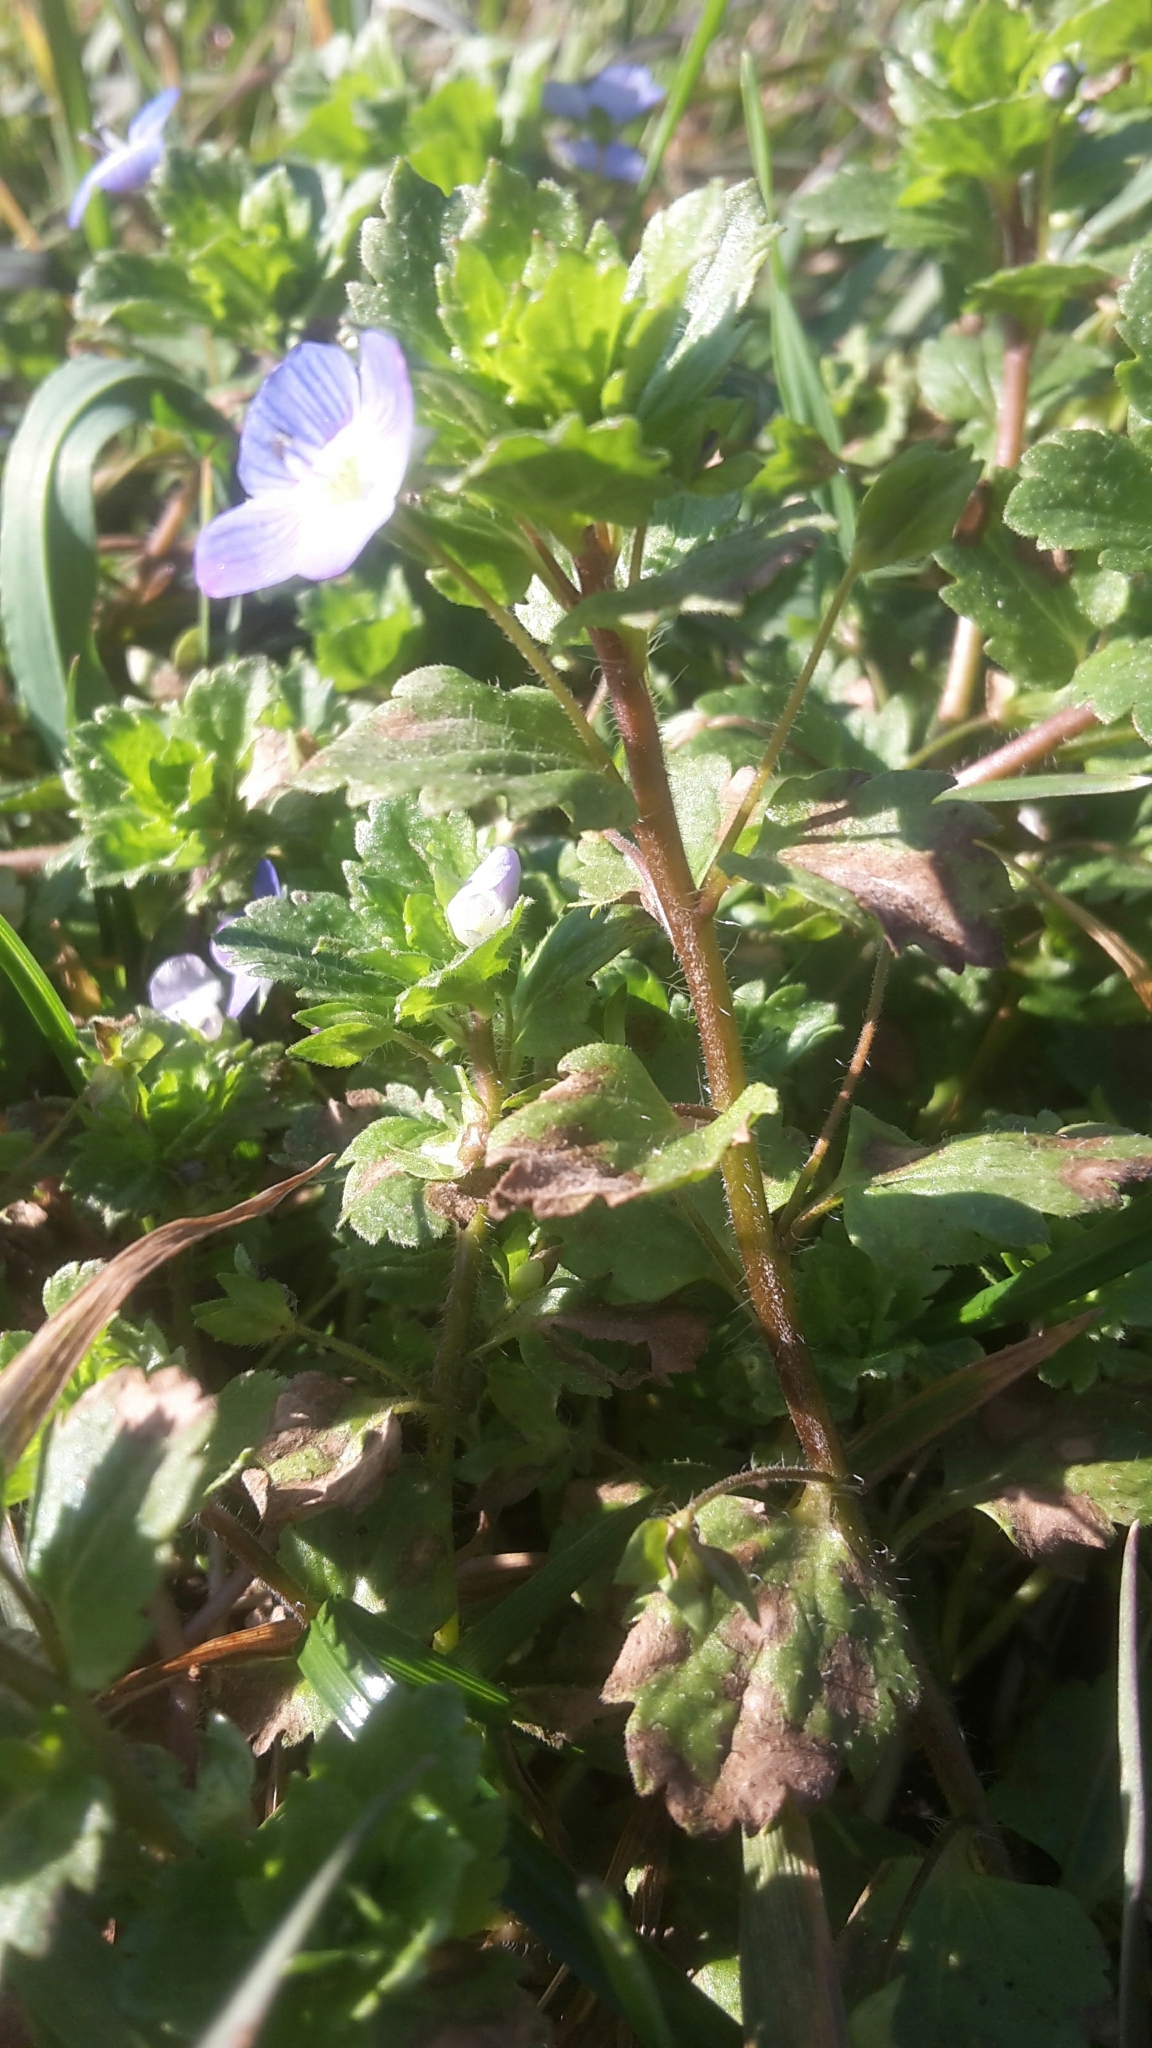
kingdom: Plantae
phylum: Tracheophyta
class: Magnoliopsida
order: Lamiales
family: Plantaginaceae
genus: Veronica
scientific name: Veronica persica
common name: Common field-speedwell
